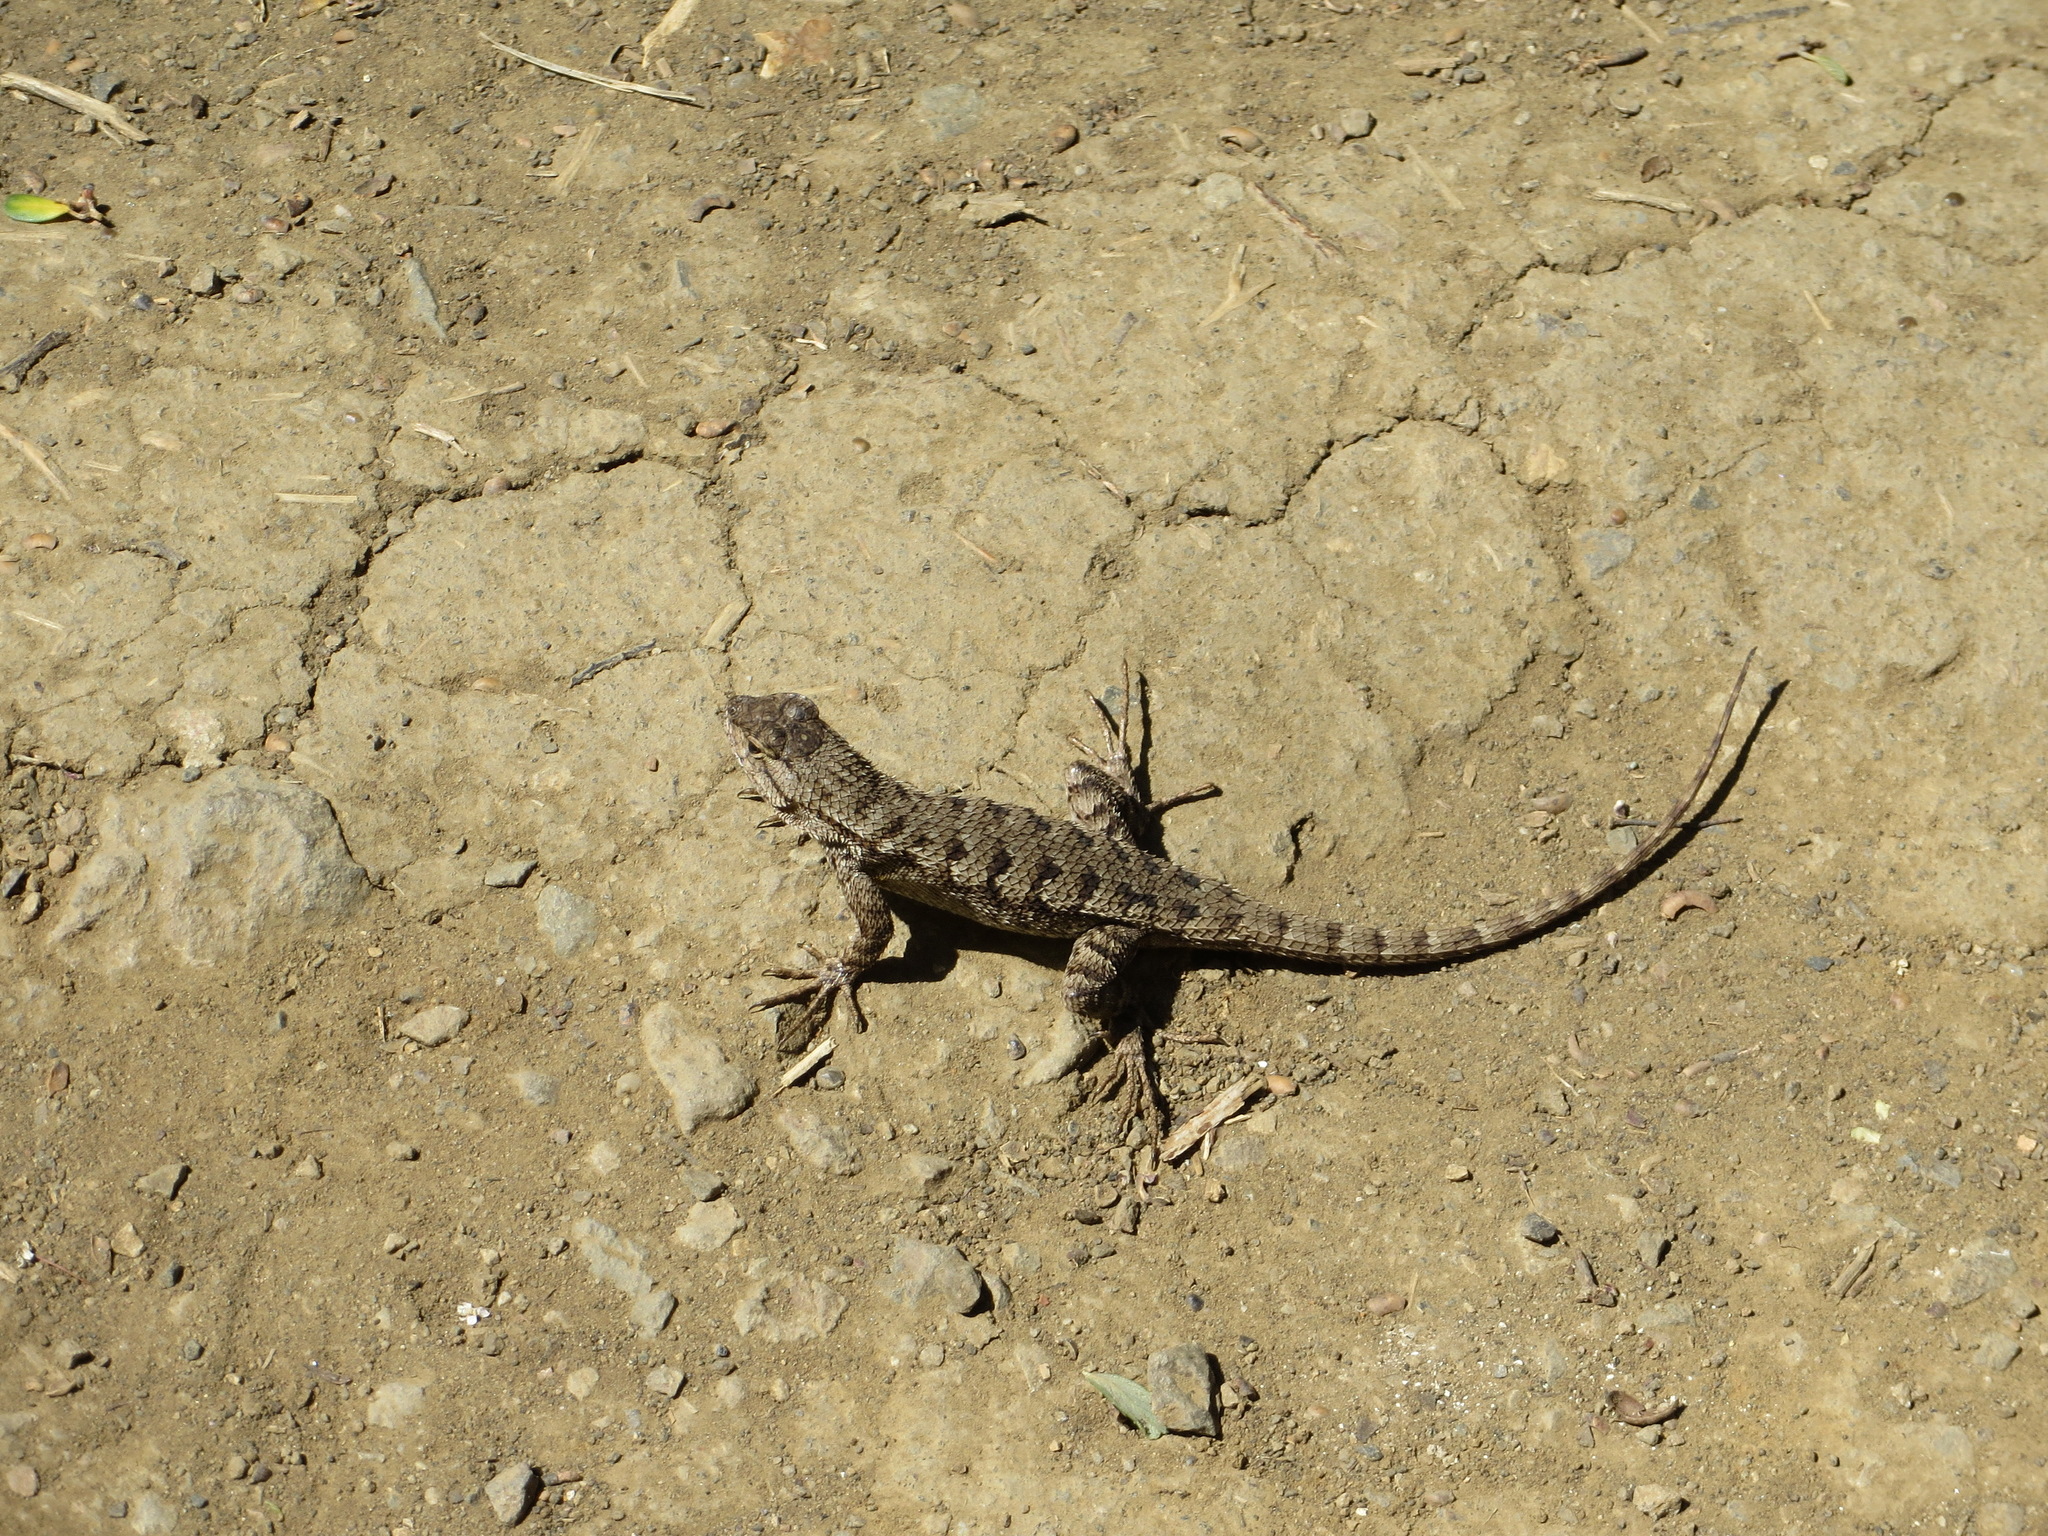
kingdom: Animalia
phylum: Chordata
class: Squamata
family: Phrynosomatidae
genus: Sceloporus
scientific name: Sceloporus occidentalis
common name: Western fence lizard
